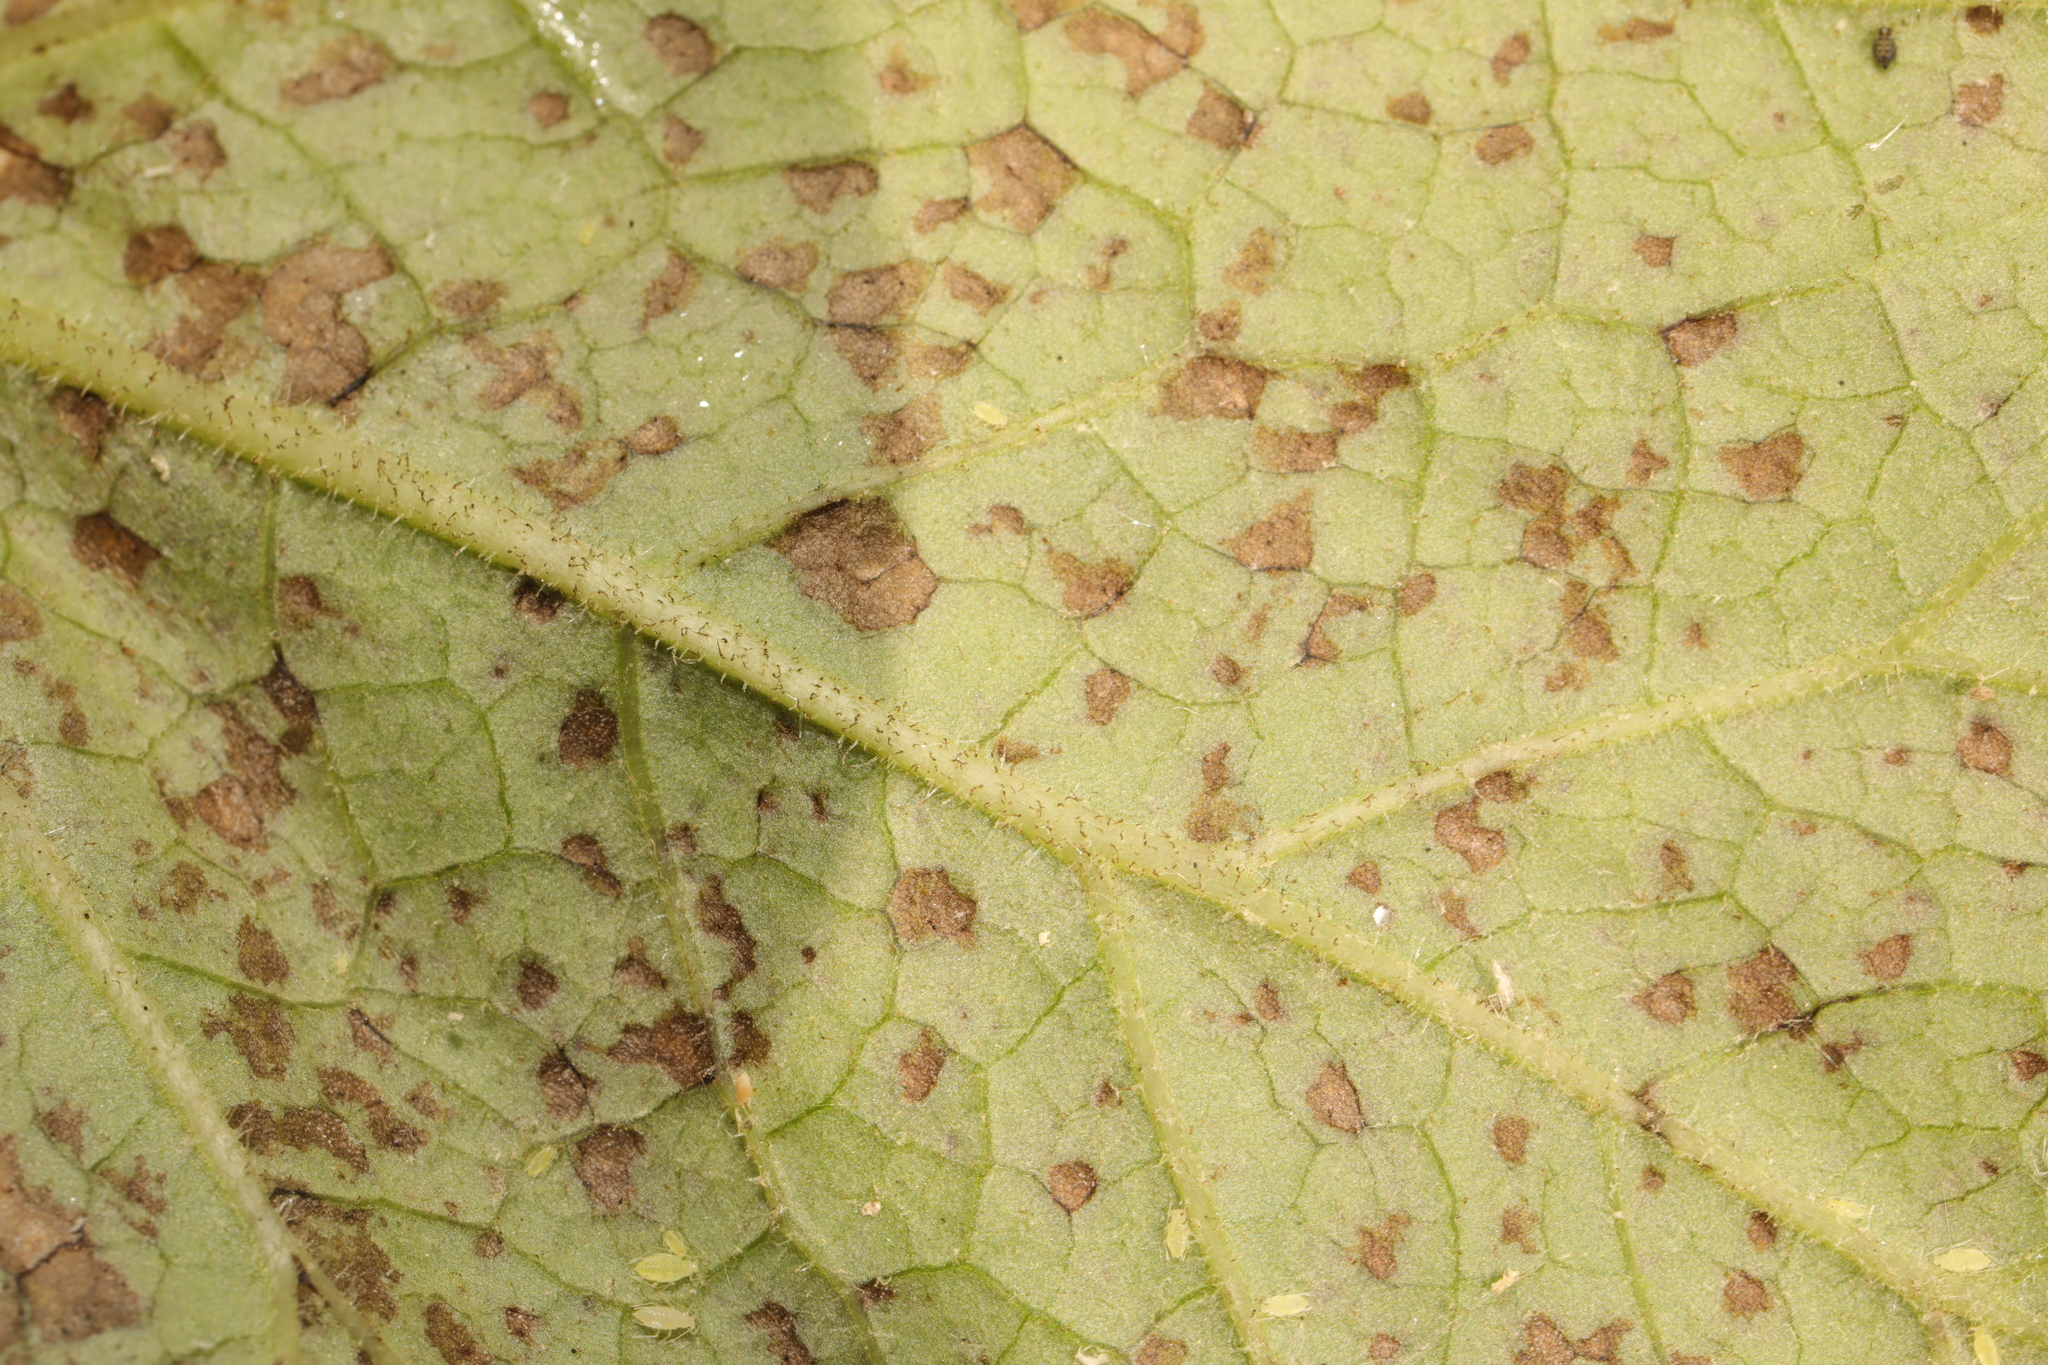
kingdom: Fungi
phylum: Ascomycota
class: Dothideomycetes
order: Mycosphaerellales
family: Mycosphaerellaceae
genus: Ramularia
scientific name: Ramularia purpurascens
